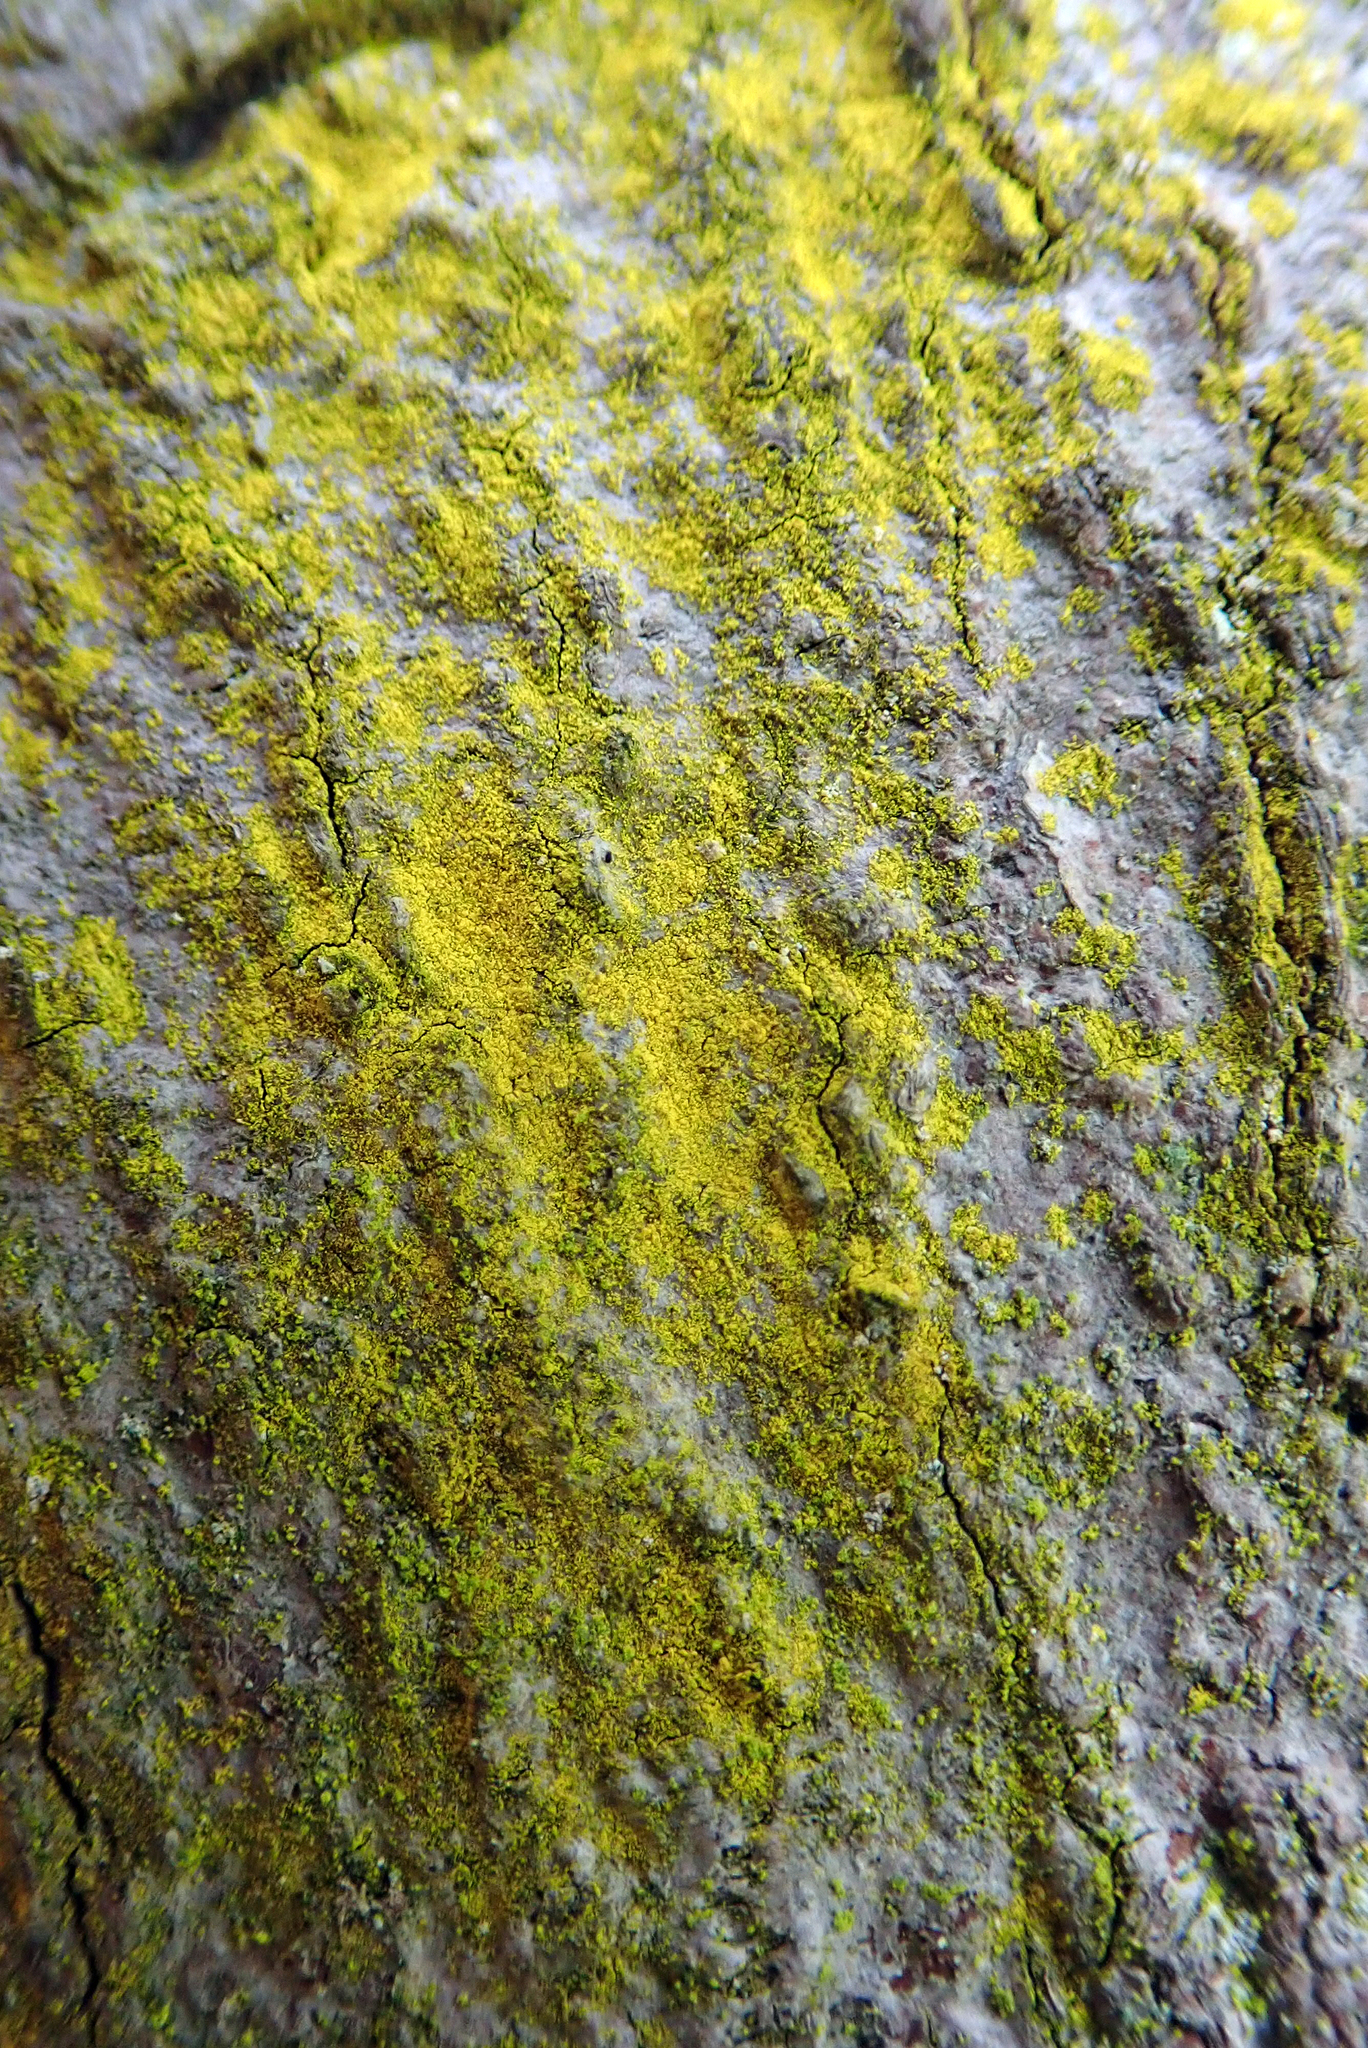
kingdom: Fungi
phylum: Ascomycota
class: Arthoniomycetes
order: Arthoniales
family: Chrysotrichaceae
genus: Chrysothrix
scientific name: Chrysothrix xanthina
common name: Common gold-dust
